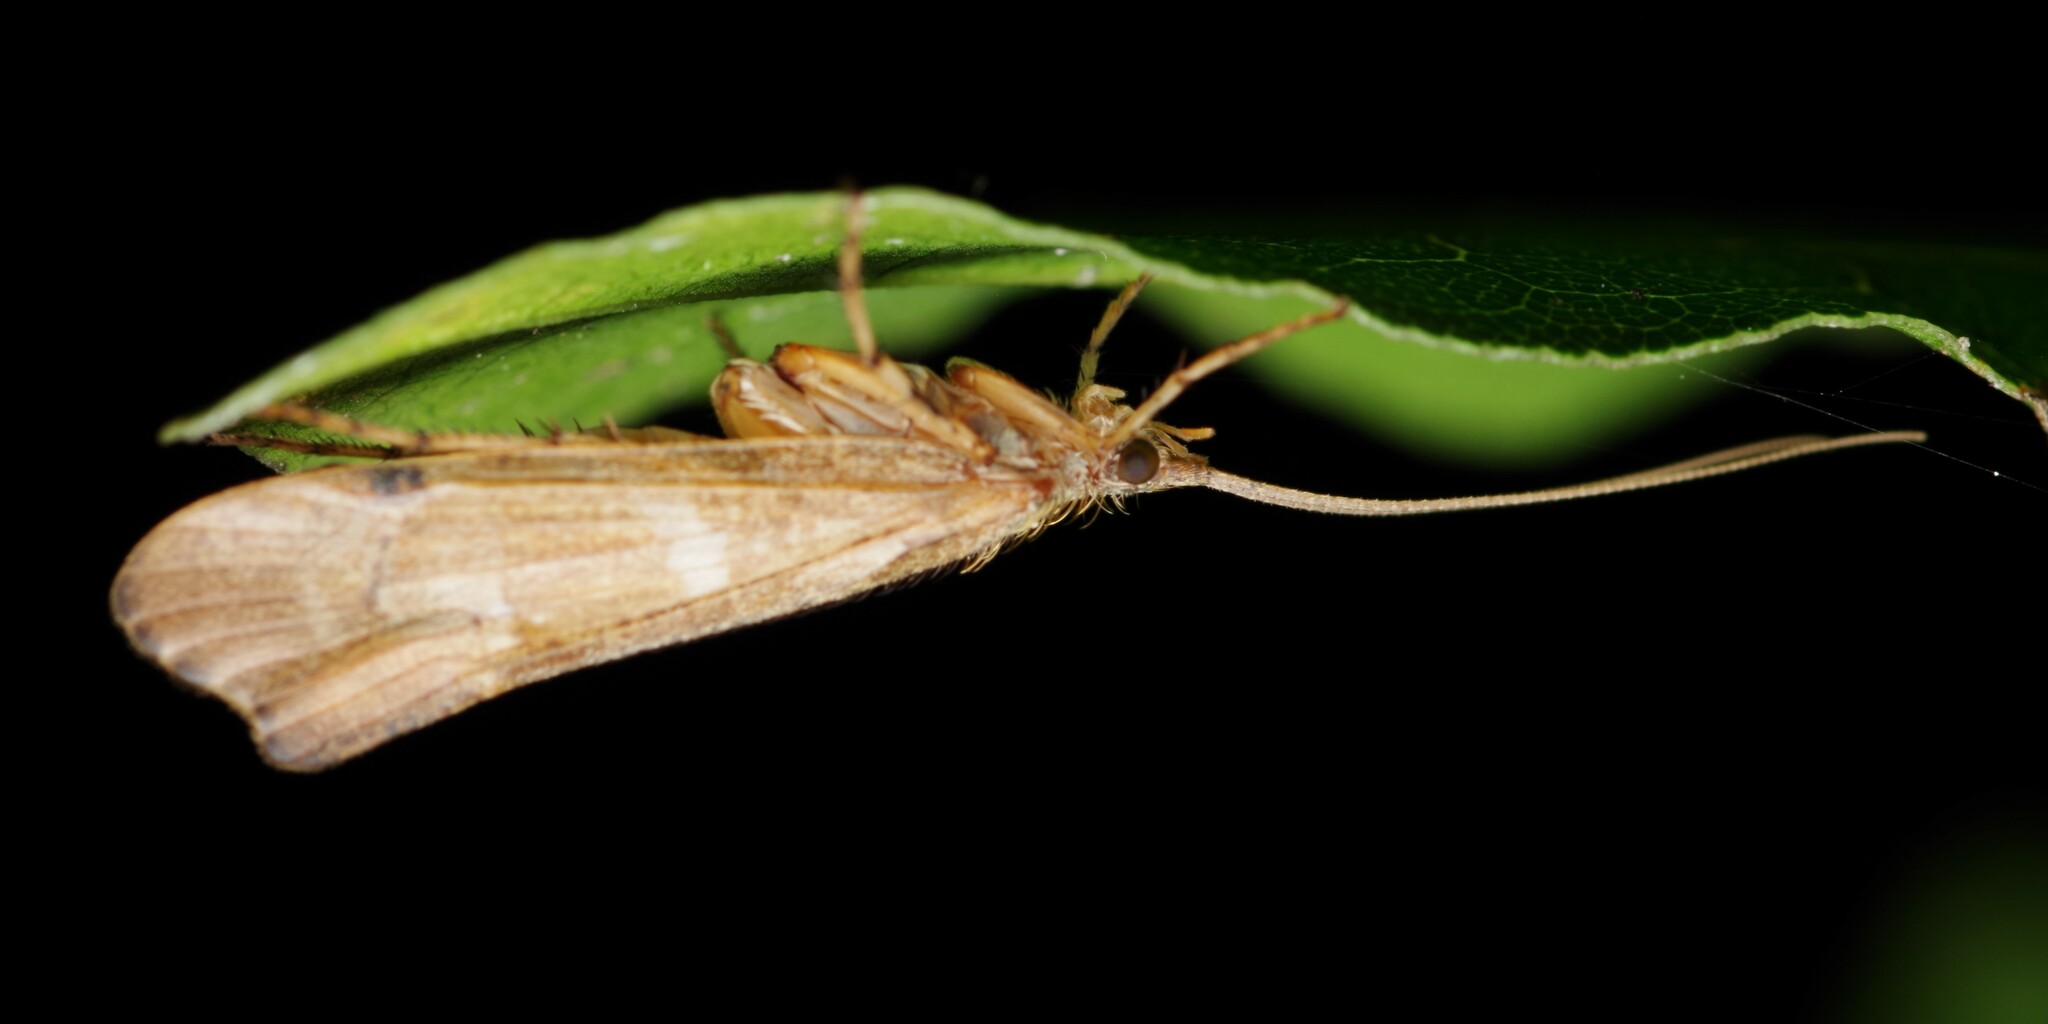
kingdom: Animalia
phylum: Arthropoda
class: Insecta
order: Trichoptera
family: Limnephilidae
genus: Glyphotaelius
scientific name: Glyphotaelius pellucidus
